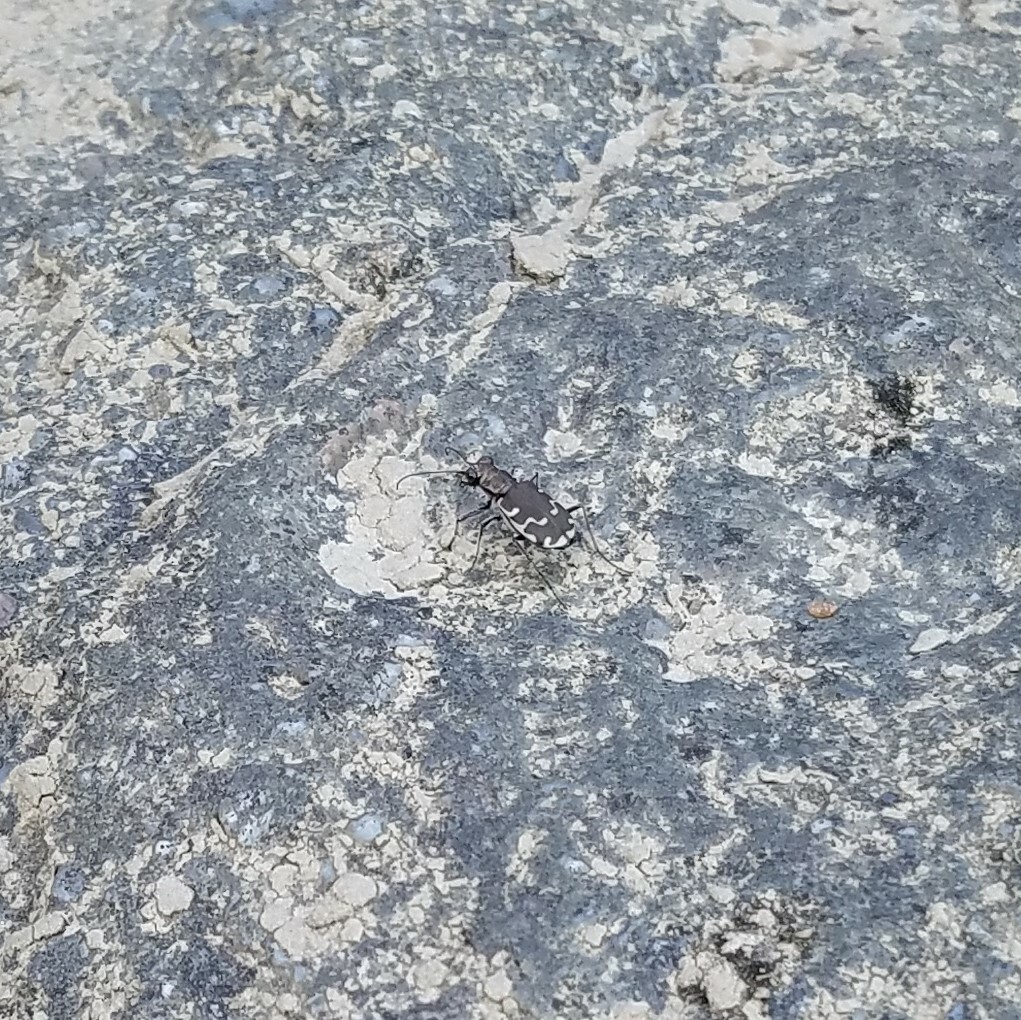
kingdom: Animalia
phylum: Arthropoda
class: Insecta
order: Coleoptera
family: Carabidae
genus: Cicindela
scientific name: Cicindela repanda
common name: Bronzed tiger beetle
